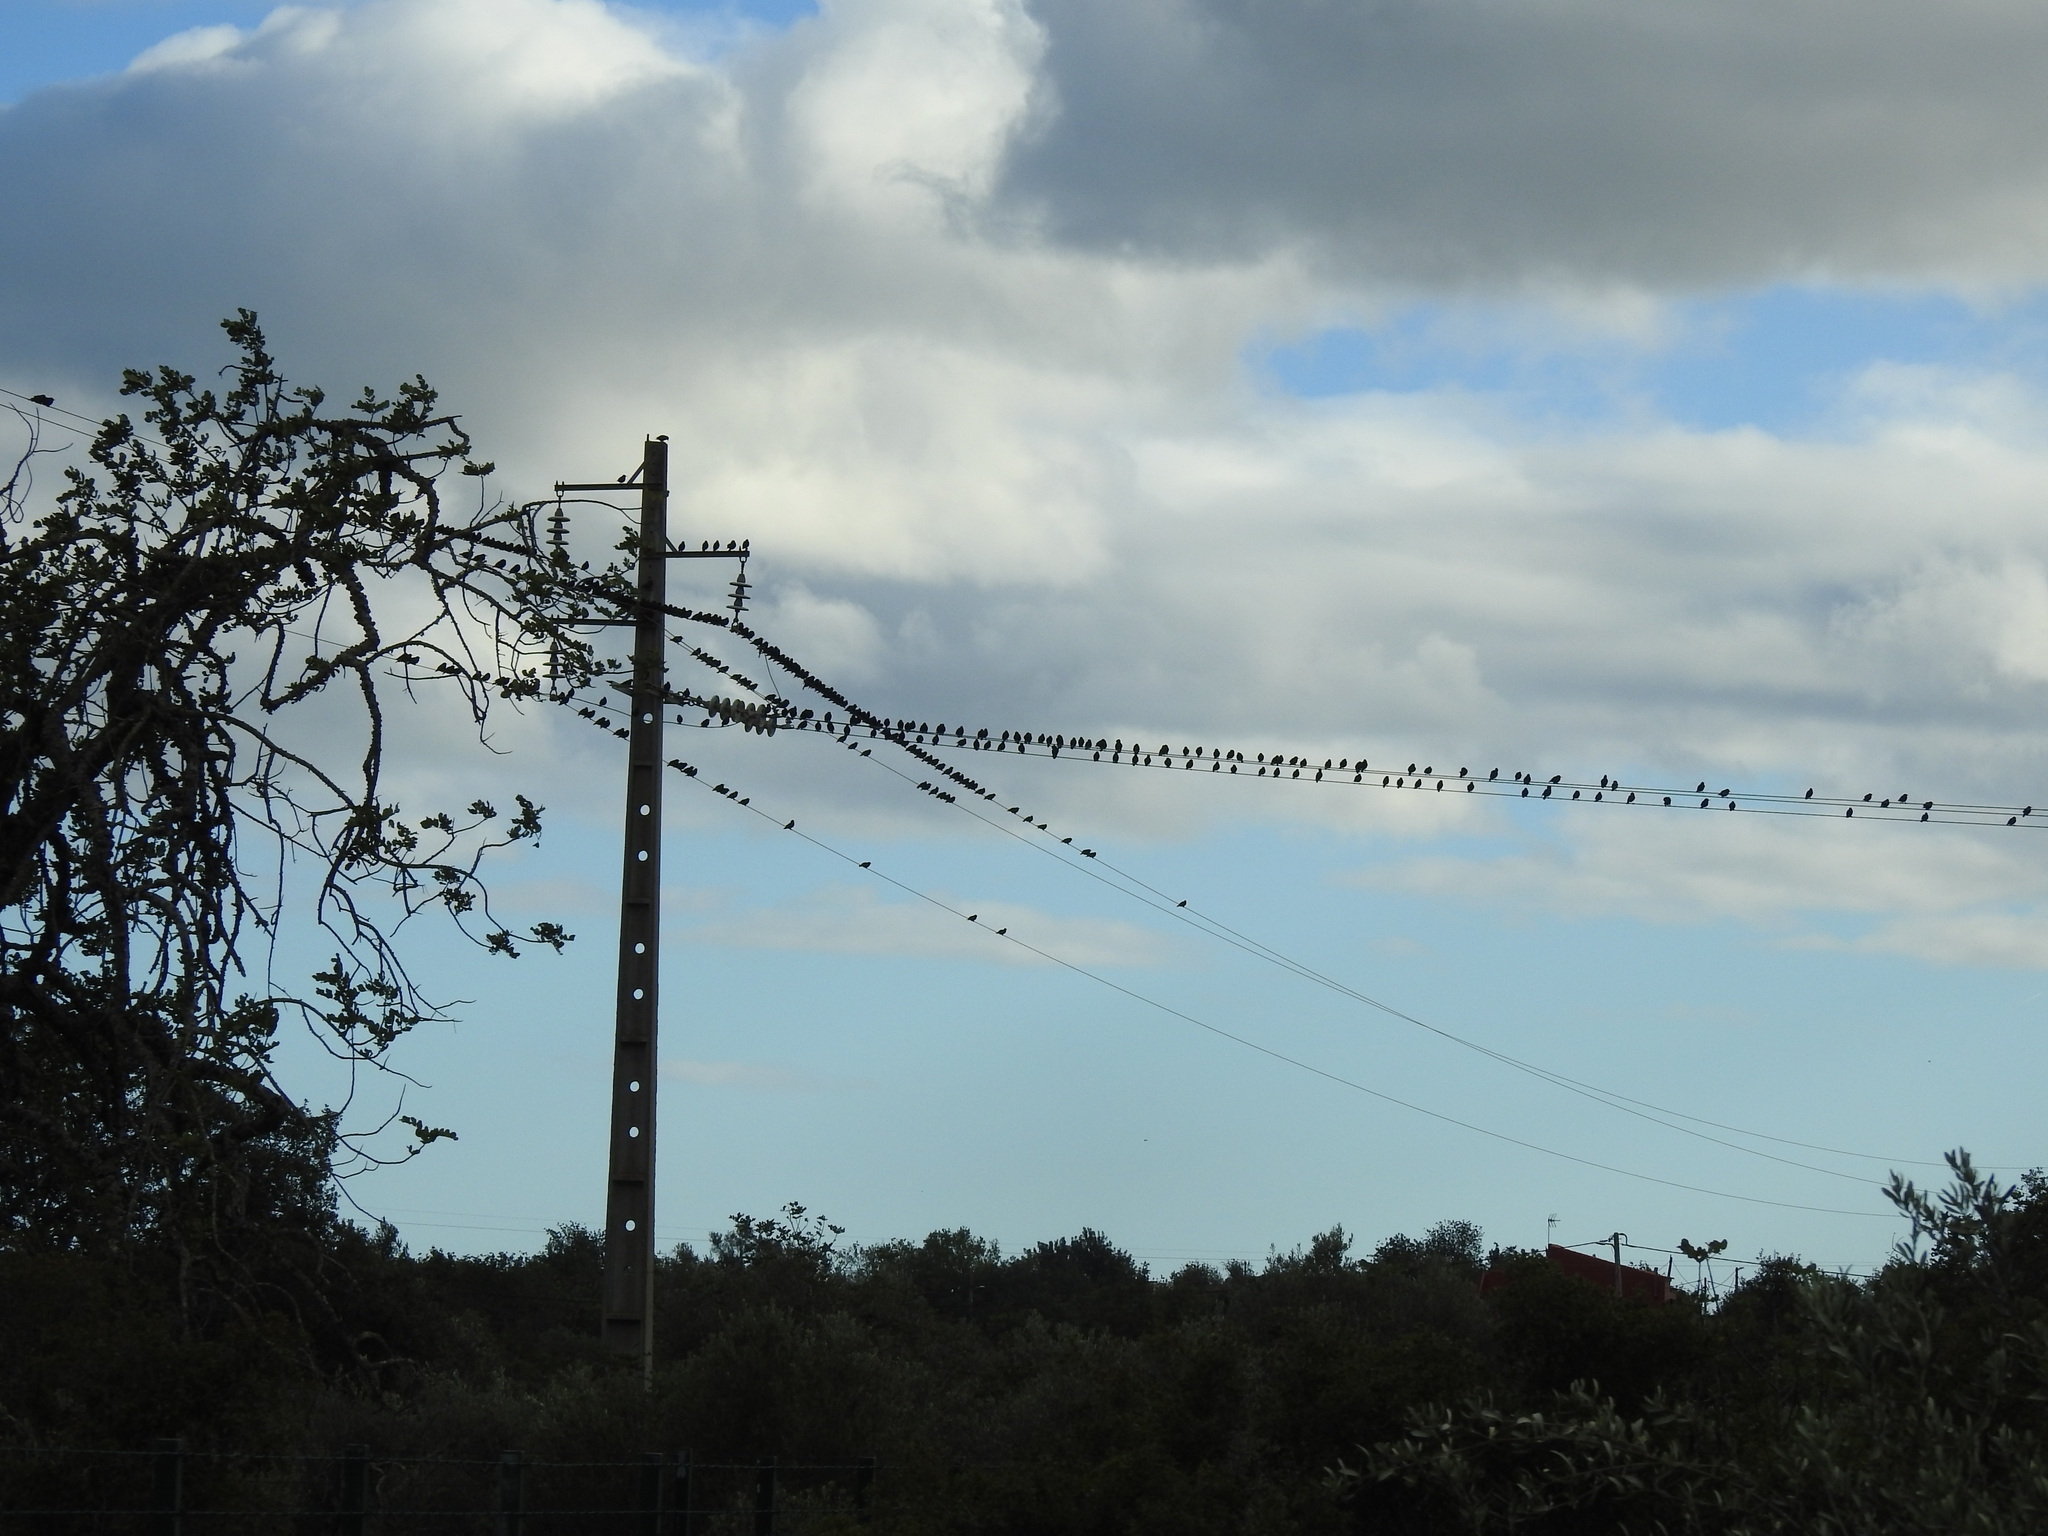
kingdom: Animalia
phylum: Chordata
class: Aves
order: Passeriformes
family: Sturnidae
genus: Sturnus
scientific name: Sturnus unicolor
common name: Spotless starling
